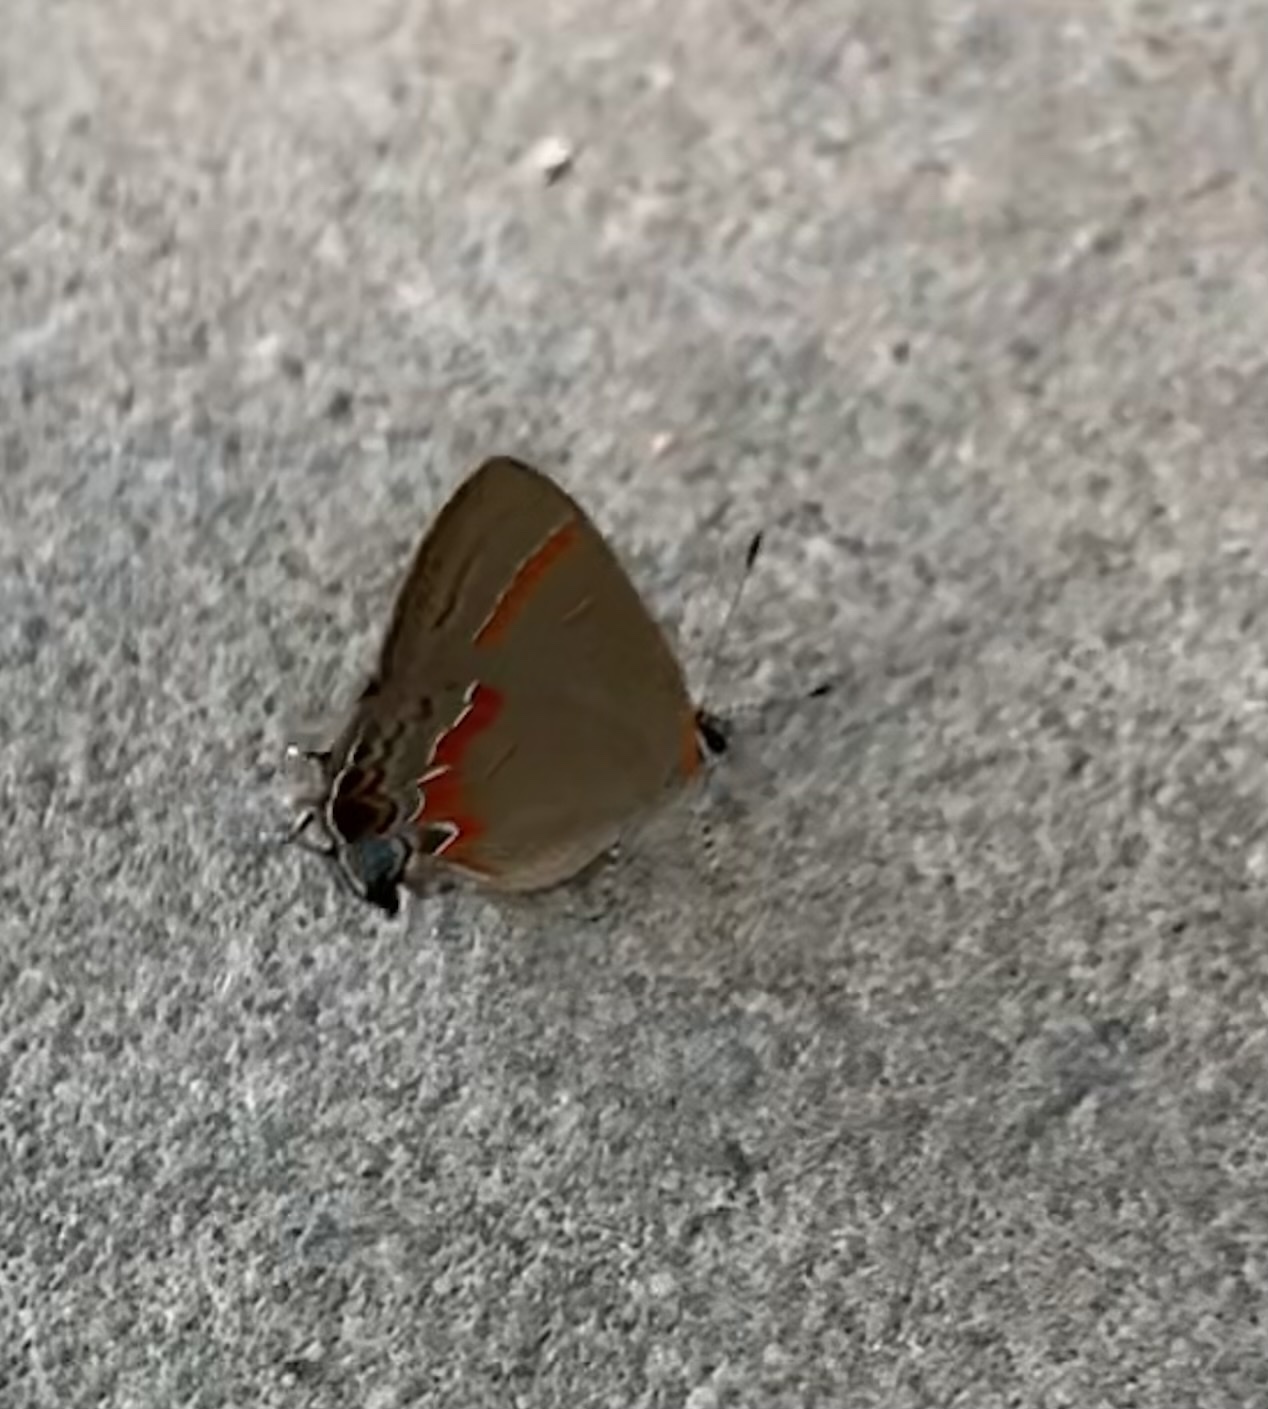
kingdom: Animalia
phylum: Arthropoda
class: Insecta
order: Lepidoptera
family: Lycaenidae
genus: Calycopis
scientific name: Calycopis cecrops
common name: Red-banded hairstreak
